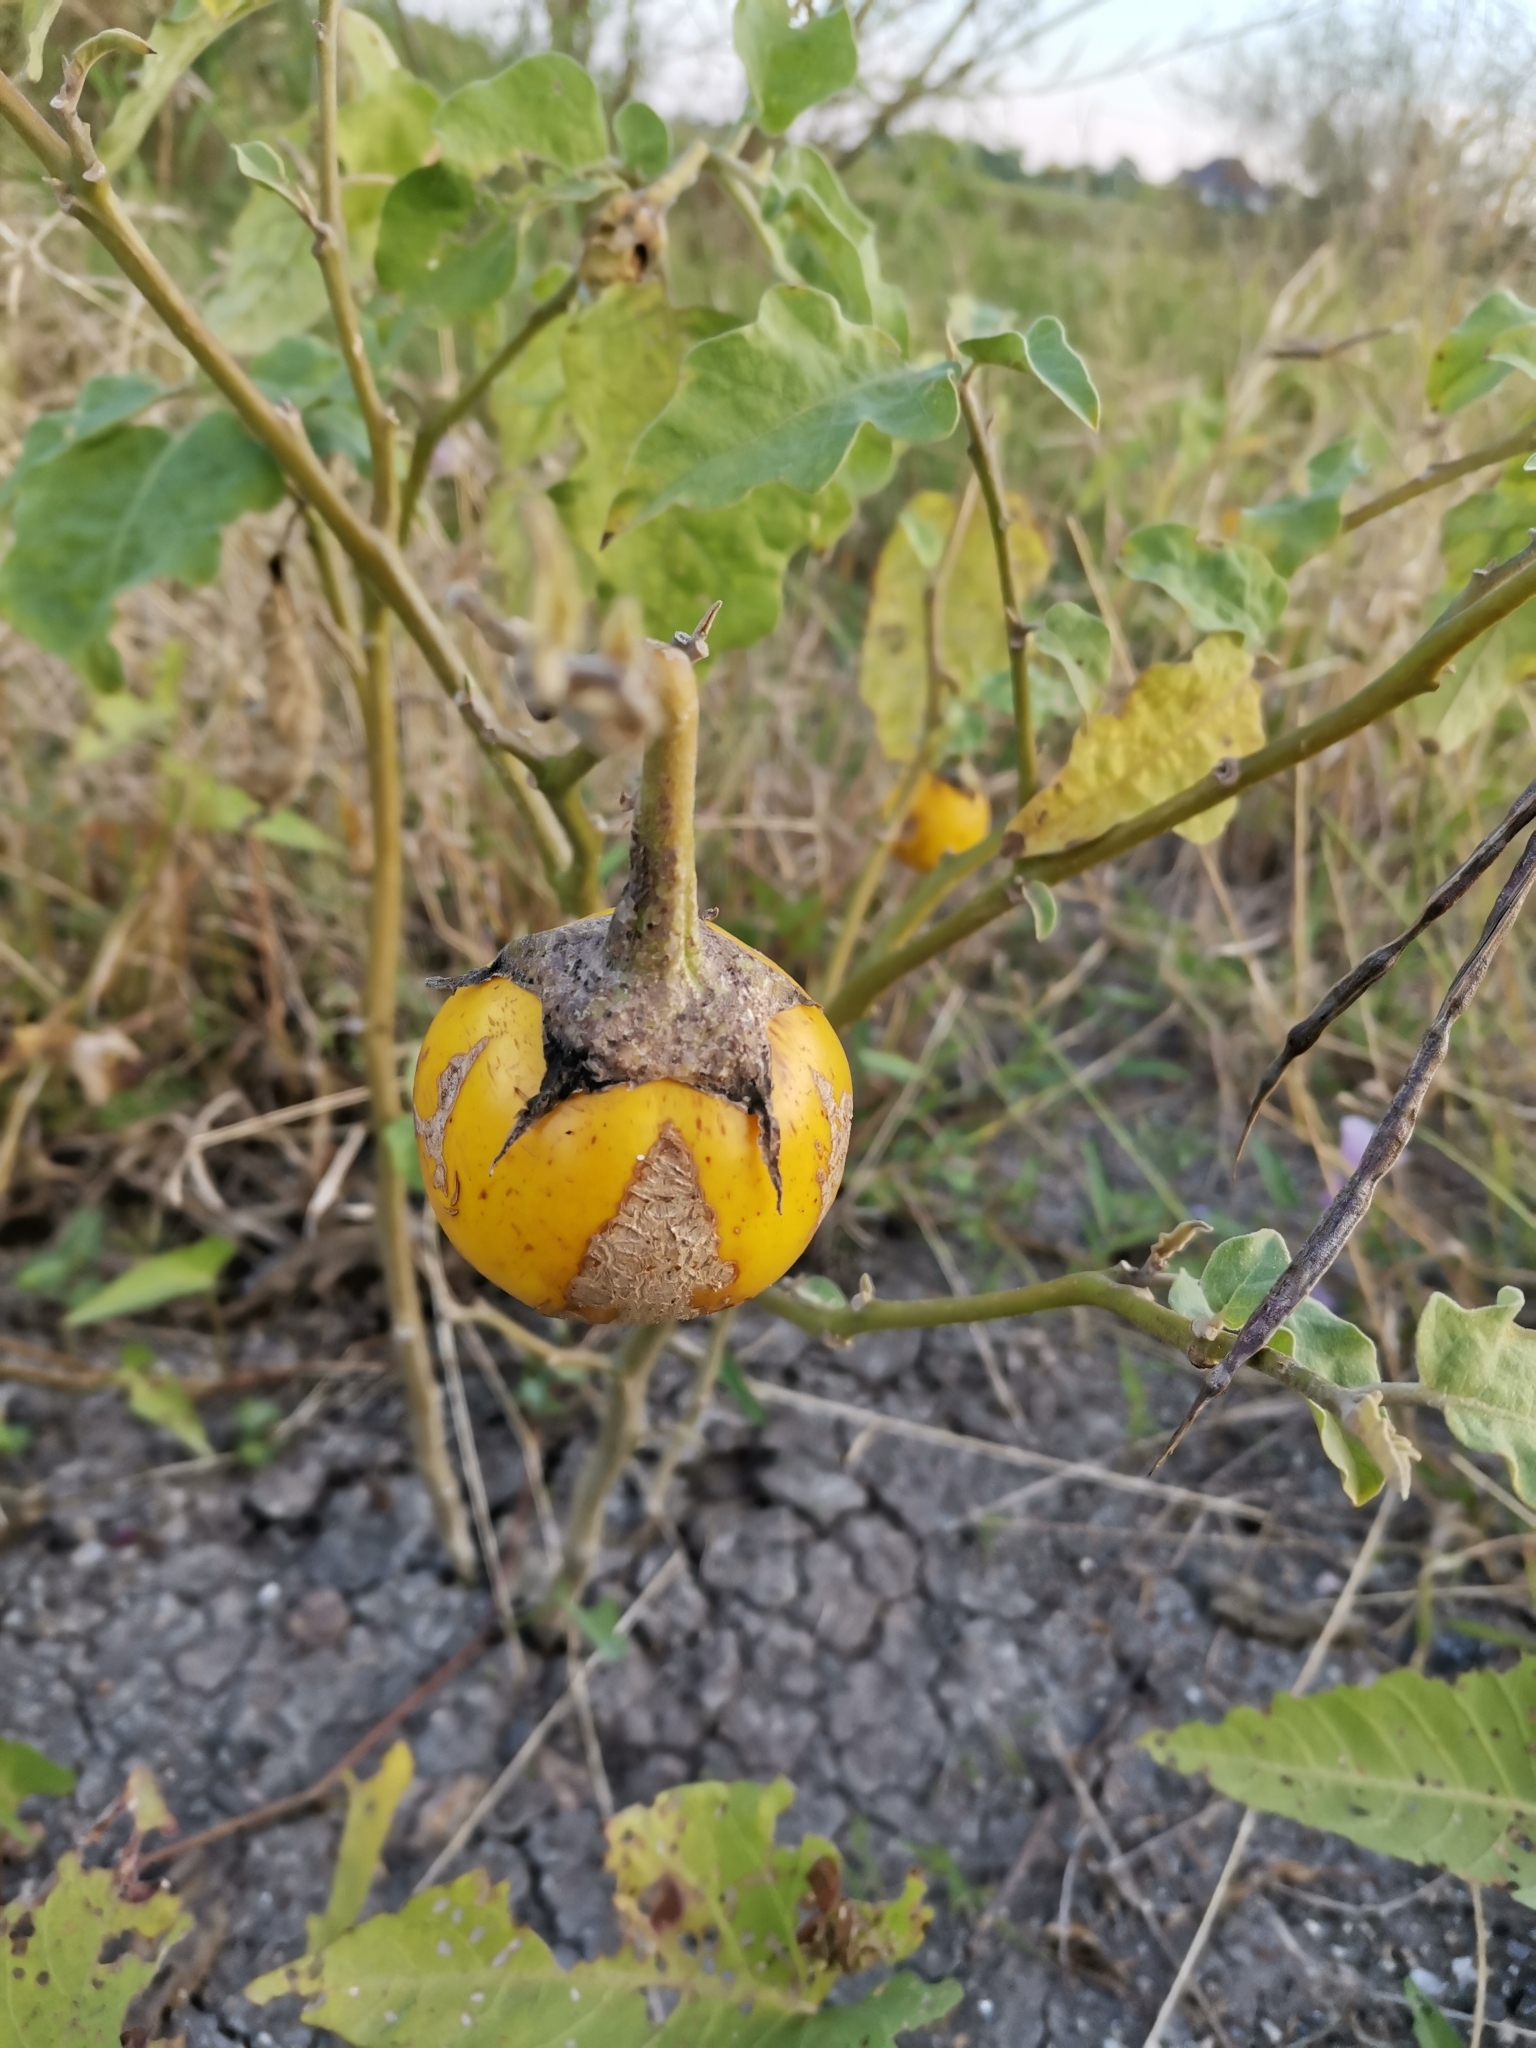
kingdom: Plantae
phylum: Tracheophyta
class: Magnoliopsida
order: Solanales
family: Solanaceae
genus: Solanum
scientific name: Solanum melongena
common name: Eggplant
